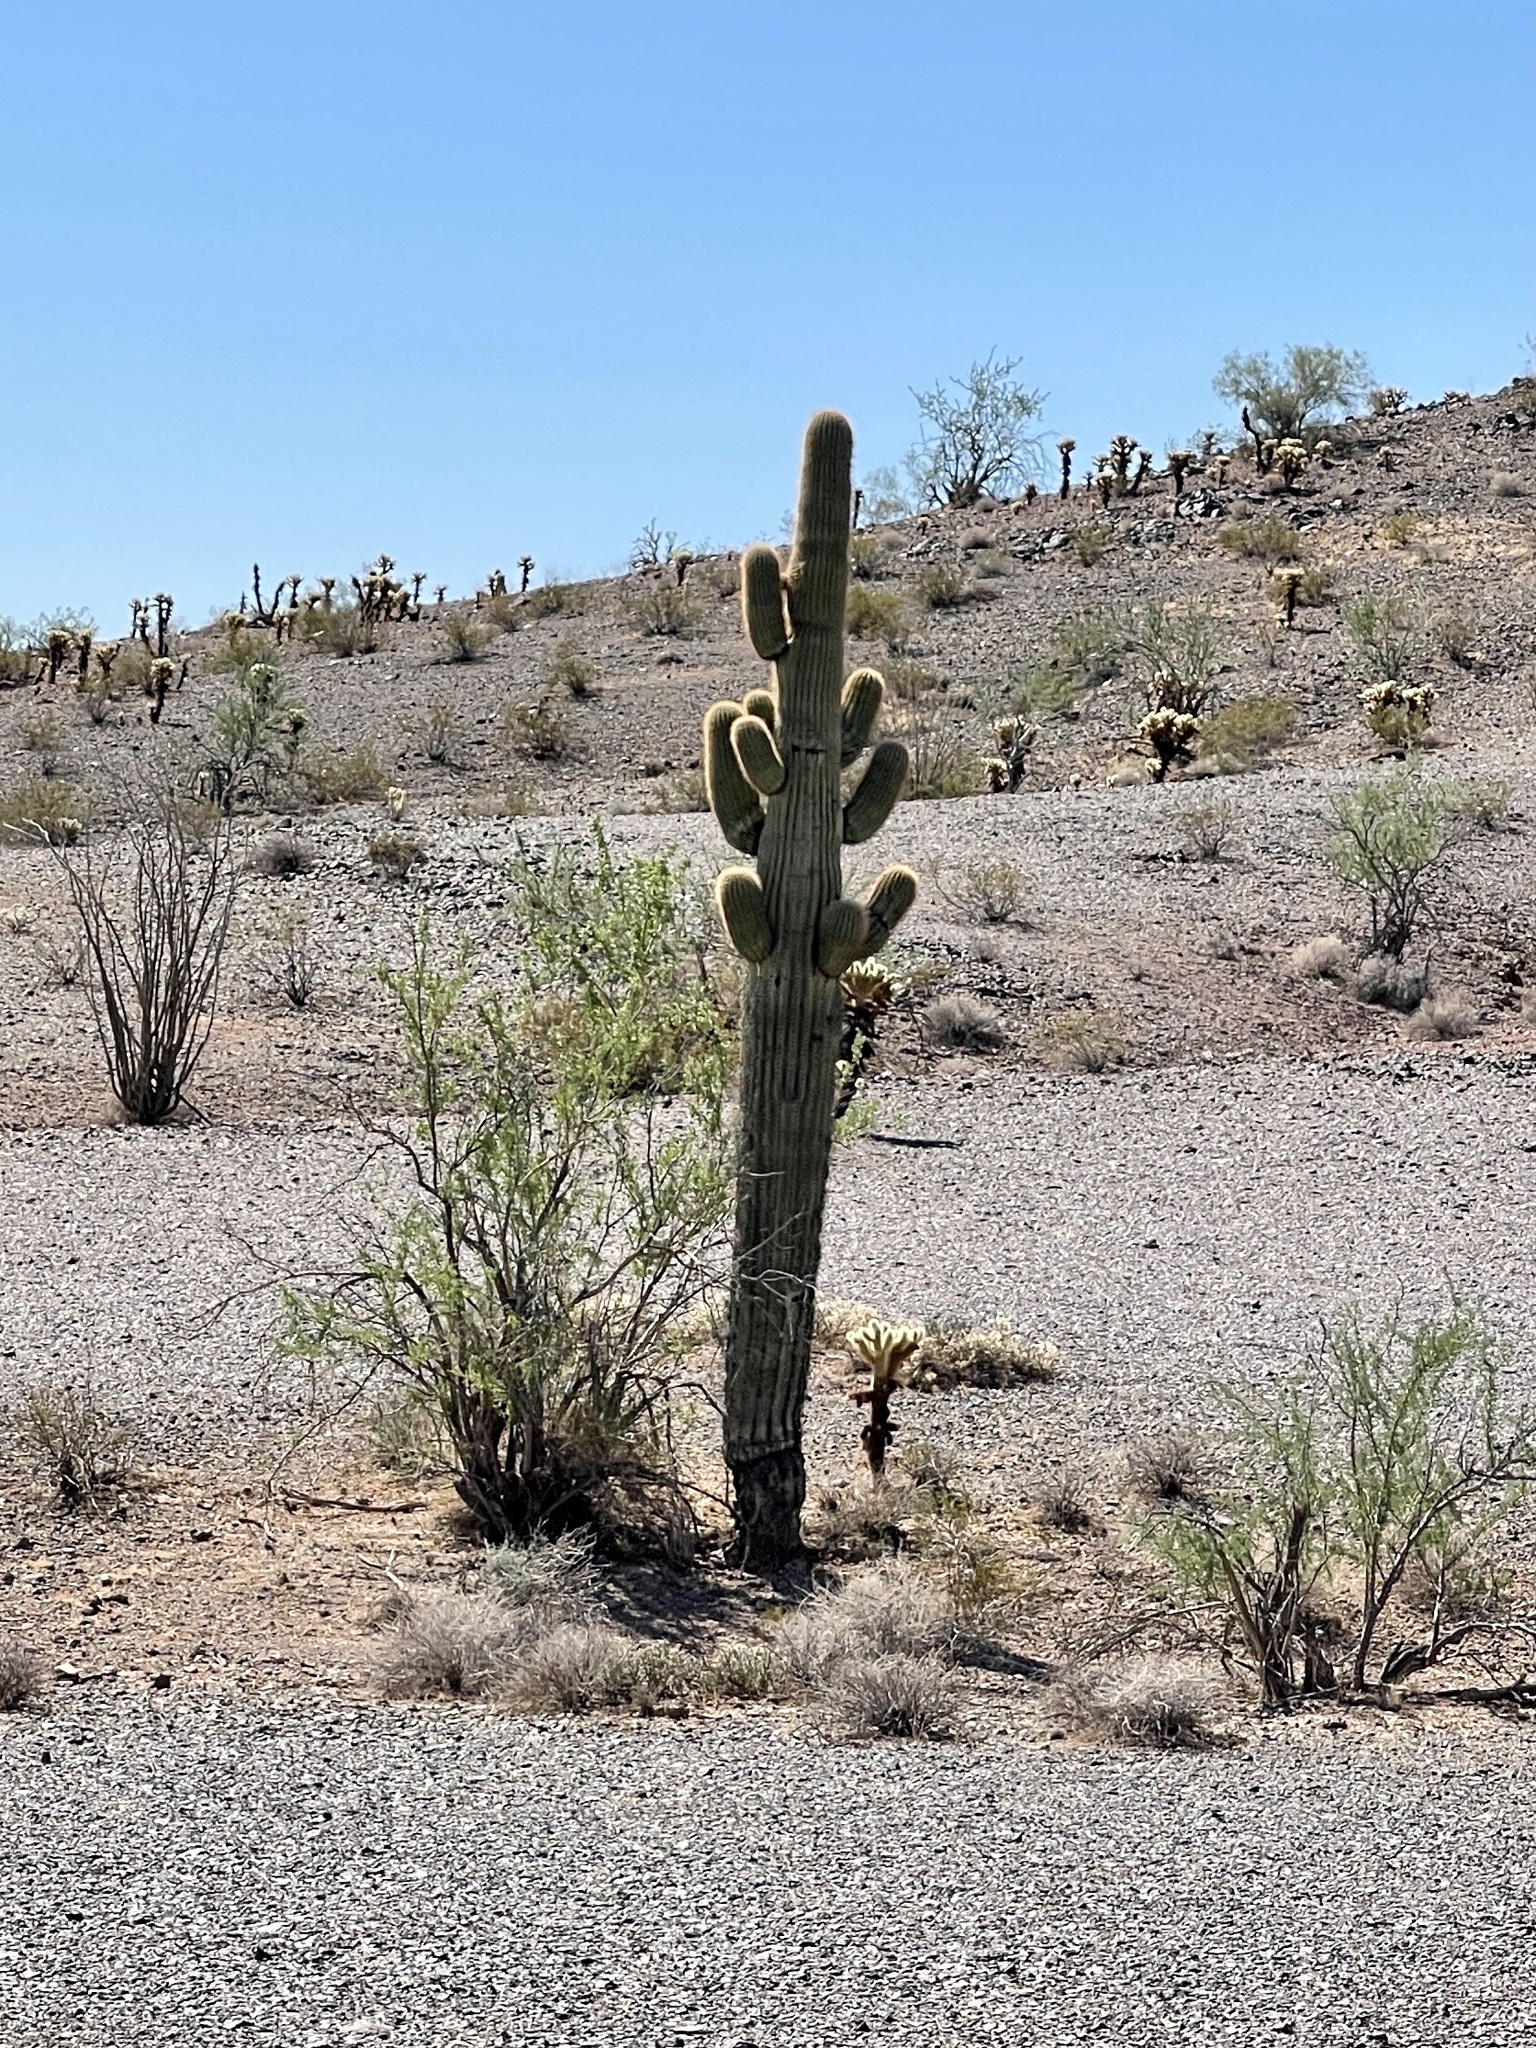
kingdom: Plantae
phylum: Tracheophyta
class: Magnoliopsida
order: Caryophyllales
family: Cactaceae
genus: Carnegiea
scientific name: Carnegiea gigantea
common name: Saguaro
